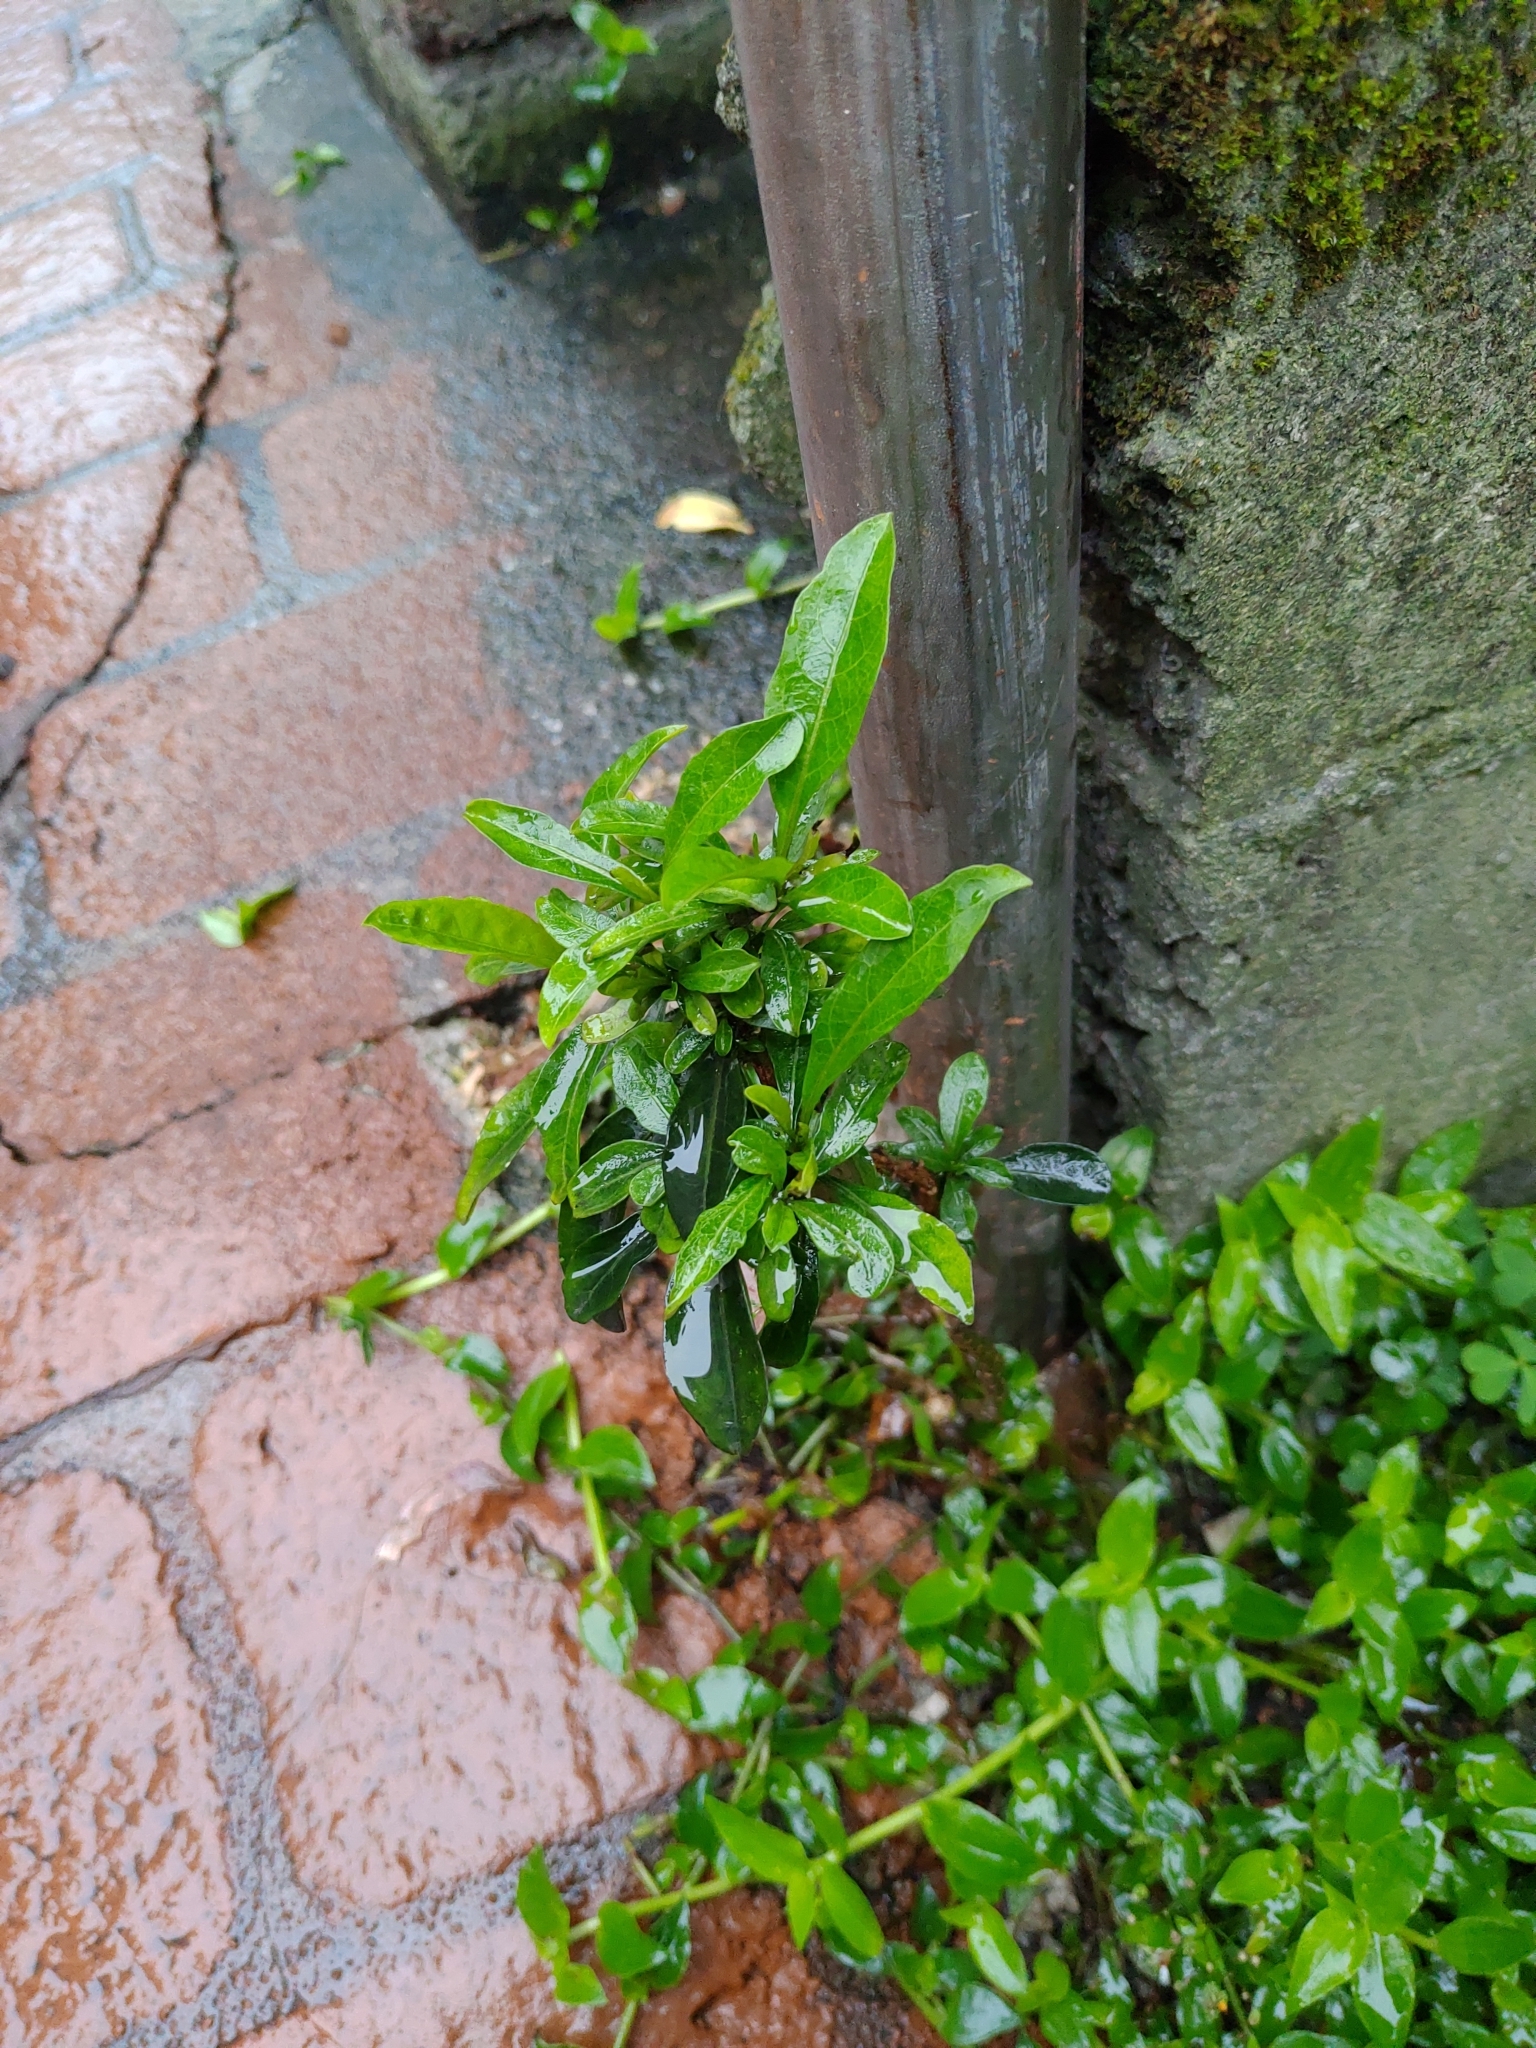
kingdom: Plantae
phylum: Tracheophyta
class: Magnoliopsida
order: Solanales
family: Solanaceae
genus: Solanum
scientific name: Solanum diphyllum
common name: Twoleaf nightshade
